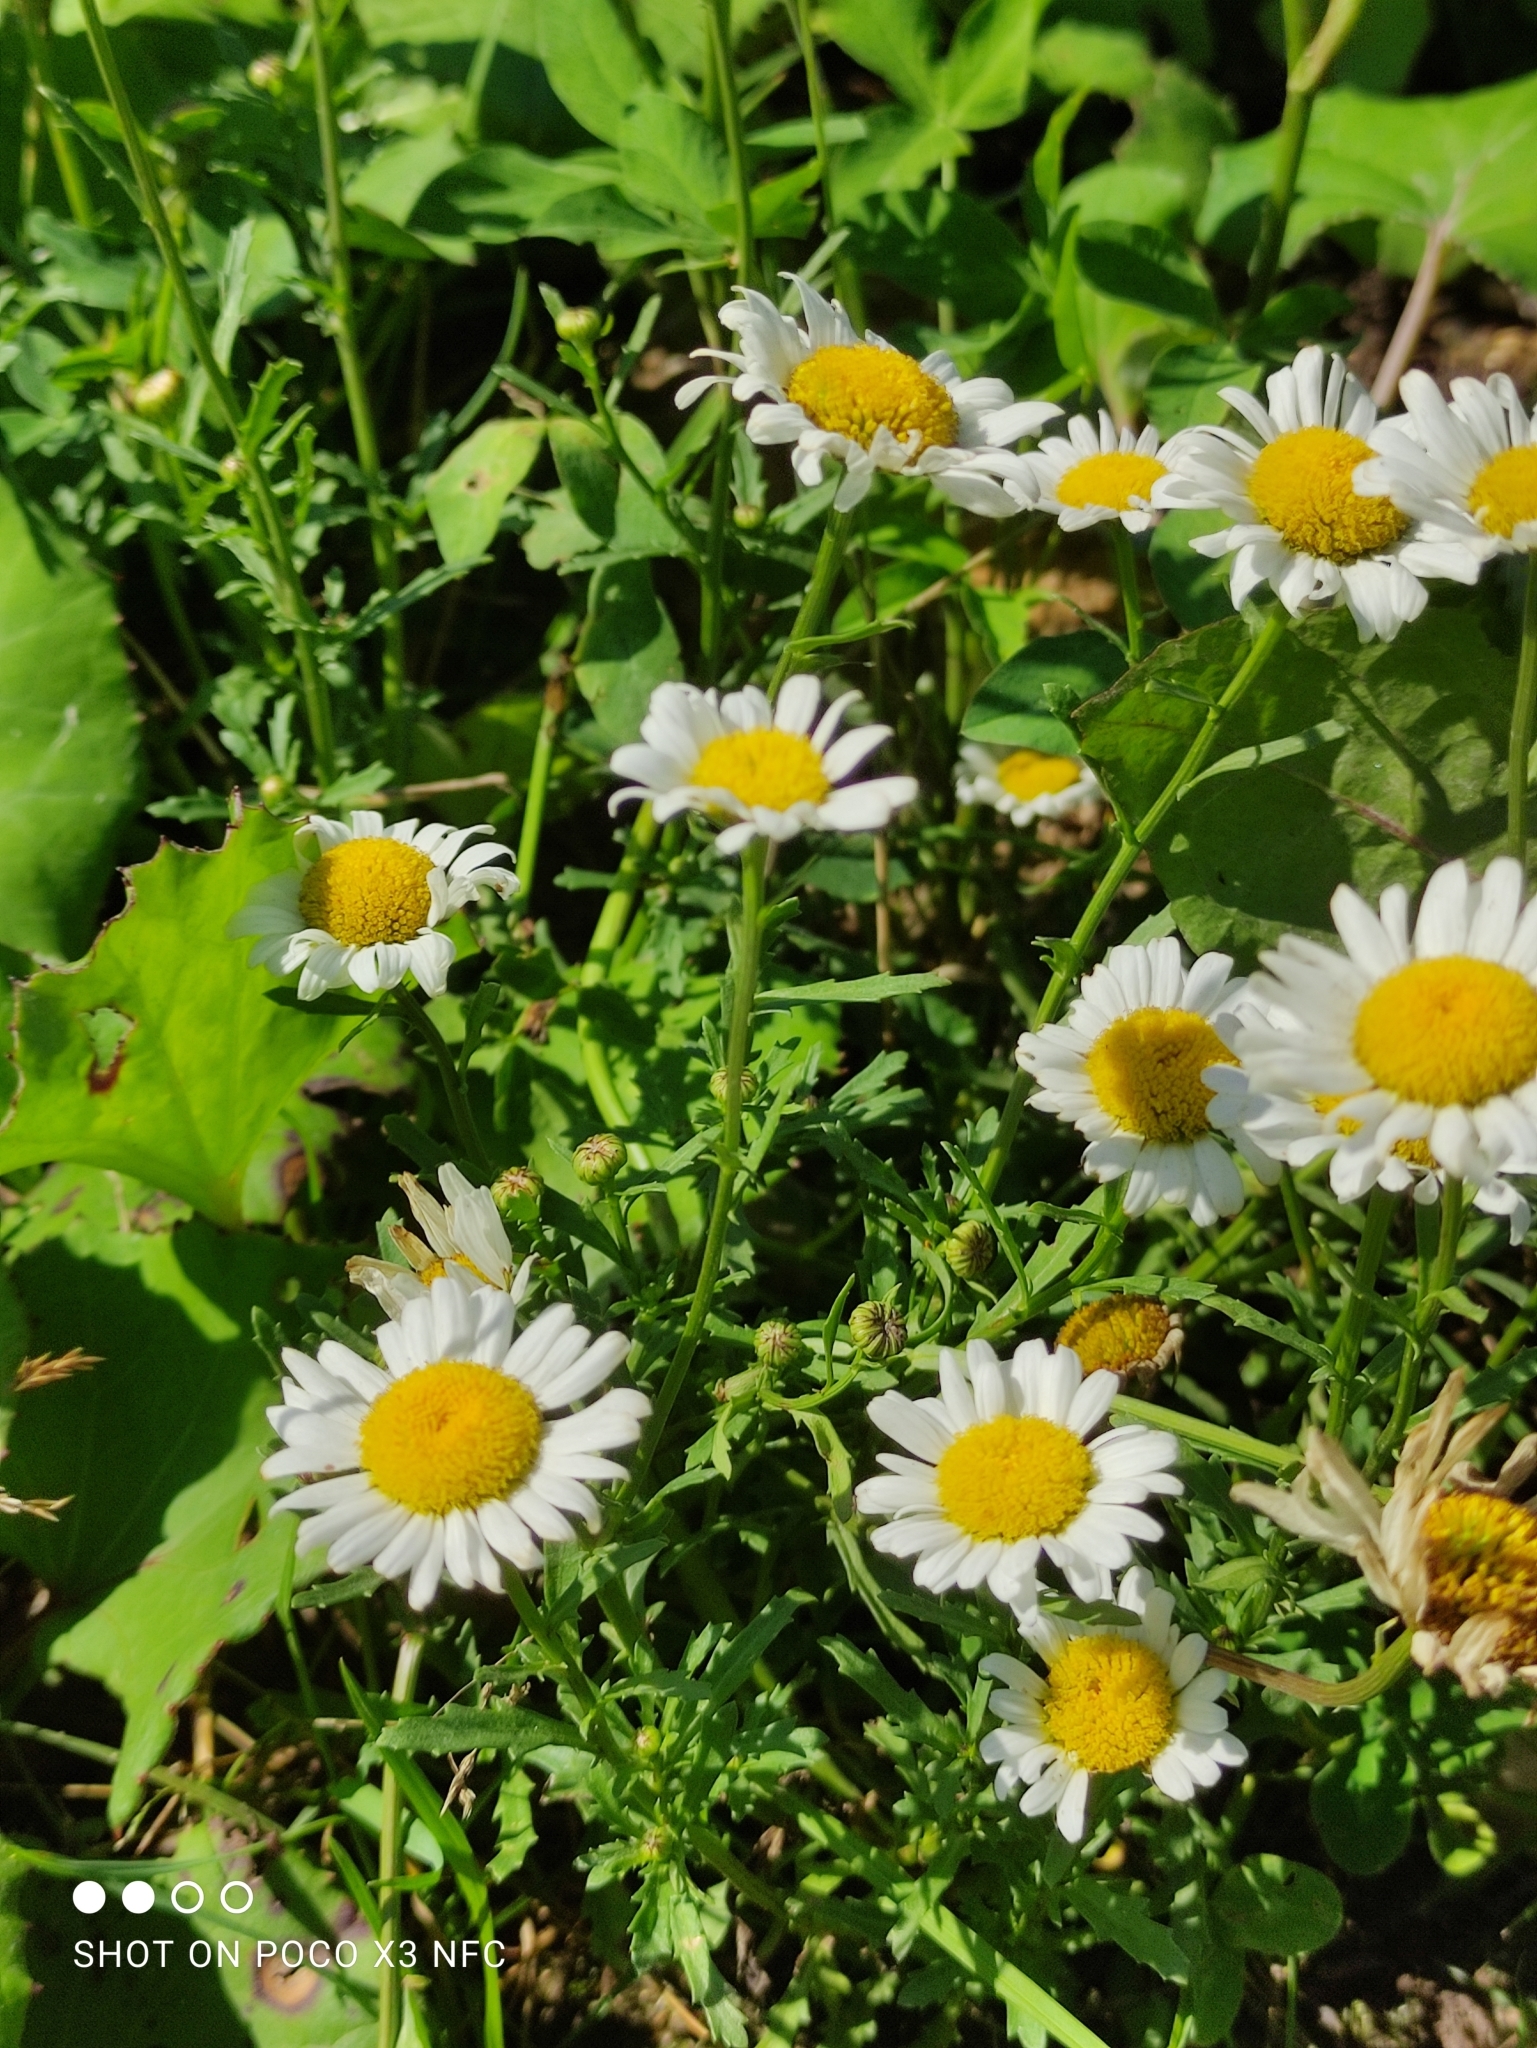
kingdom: Plantae
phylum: Tracheophyta
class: Magnoliopsida
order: Asterales
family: Asteraceae
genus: Leucanthemum
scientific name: Leucanthemum vulgare
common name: Oxeye daisy
